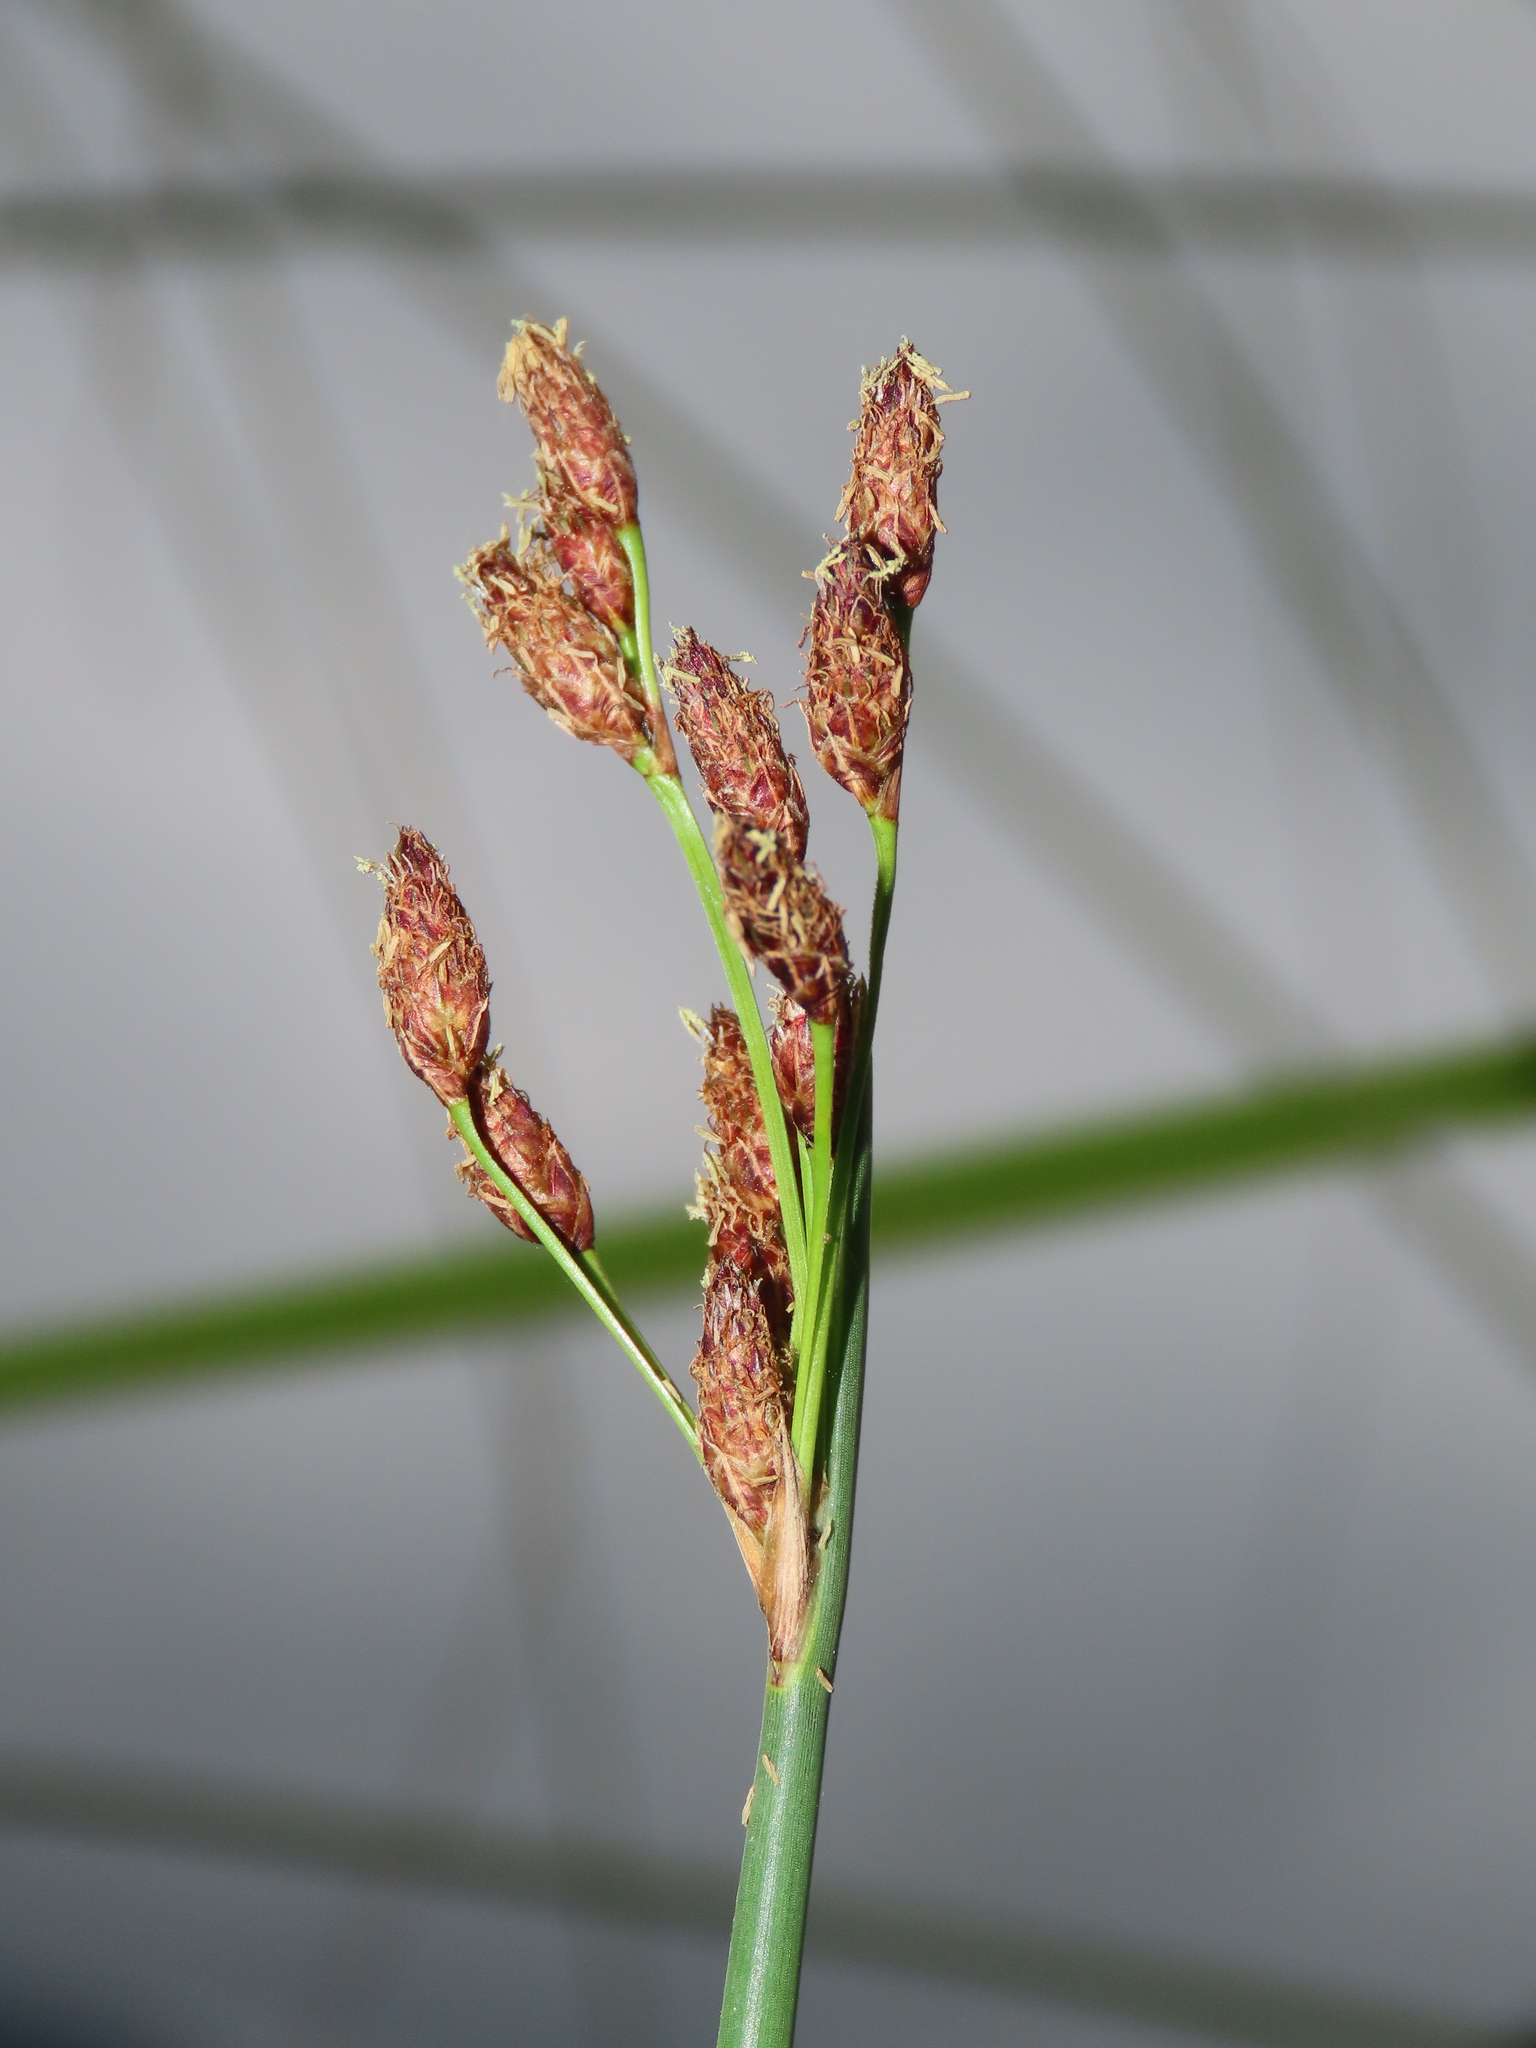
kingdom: Plantae
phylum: Tracheophyta
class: Liliopsida
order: Poales
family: Cyperaceae
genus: Schoenoplectus
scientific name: Schoenoplectus tabernaemontani
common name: Grey club-rush
